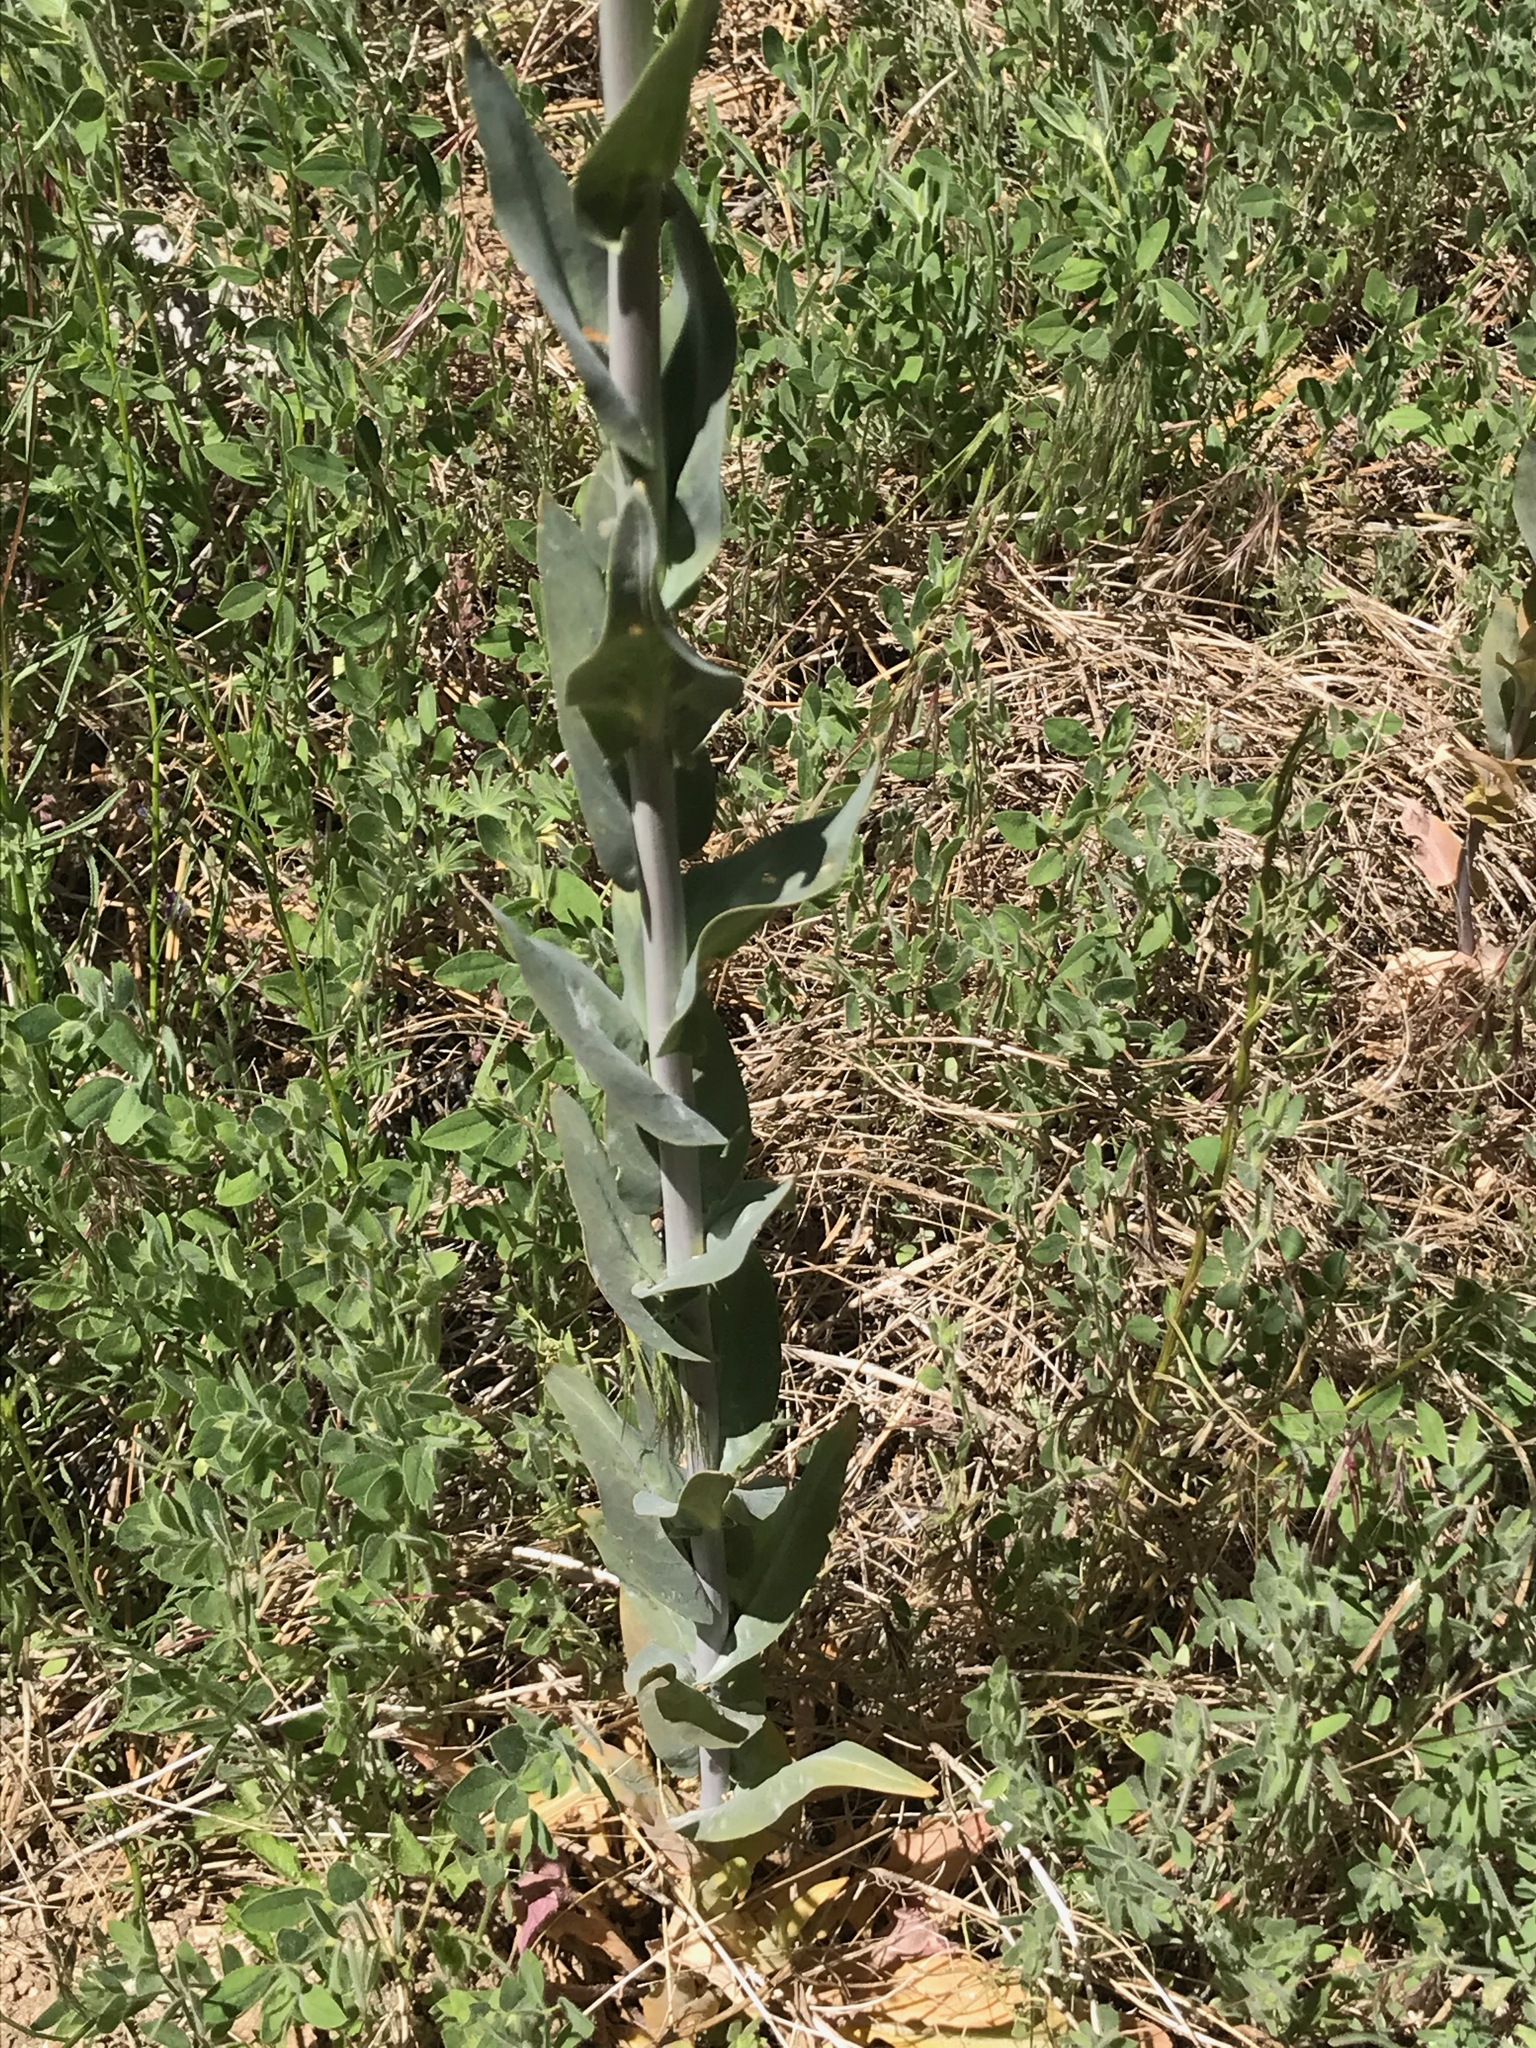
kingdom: Plantae
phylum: Tracheophyta
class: Magnoliopsida
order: Brassicales
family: Brassicaceae
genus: Turritis
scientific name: Turritis glabra
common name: Tower rockcress
